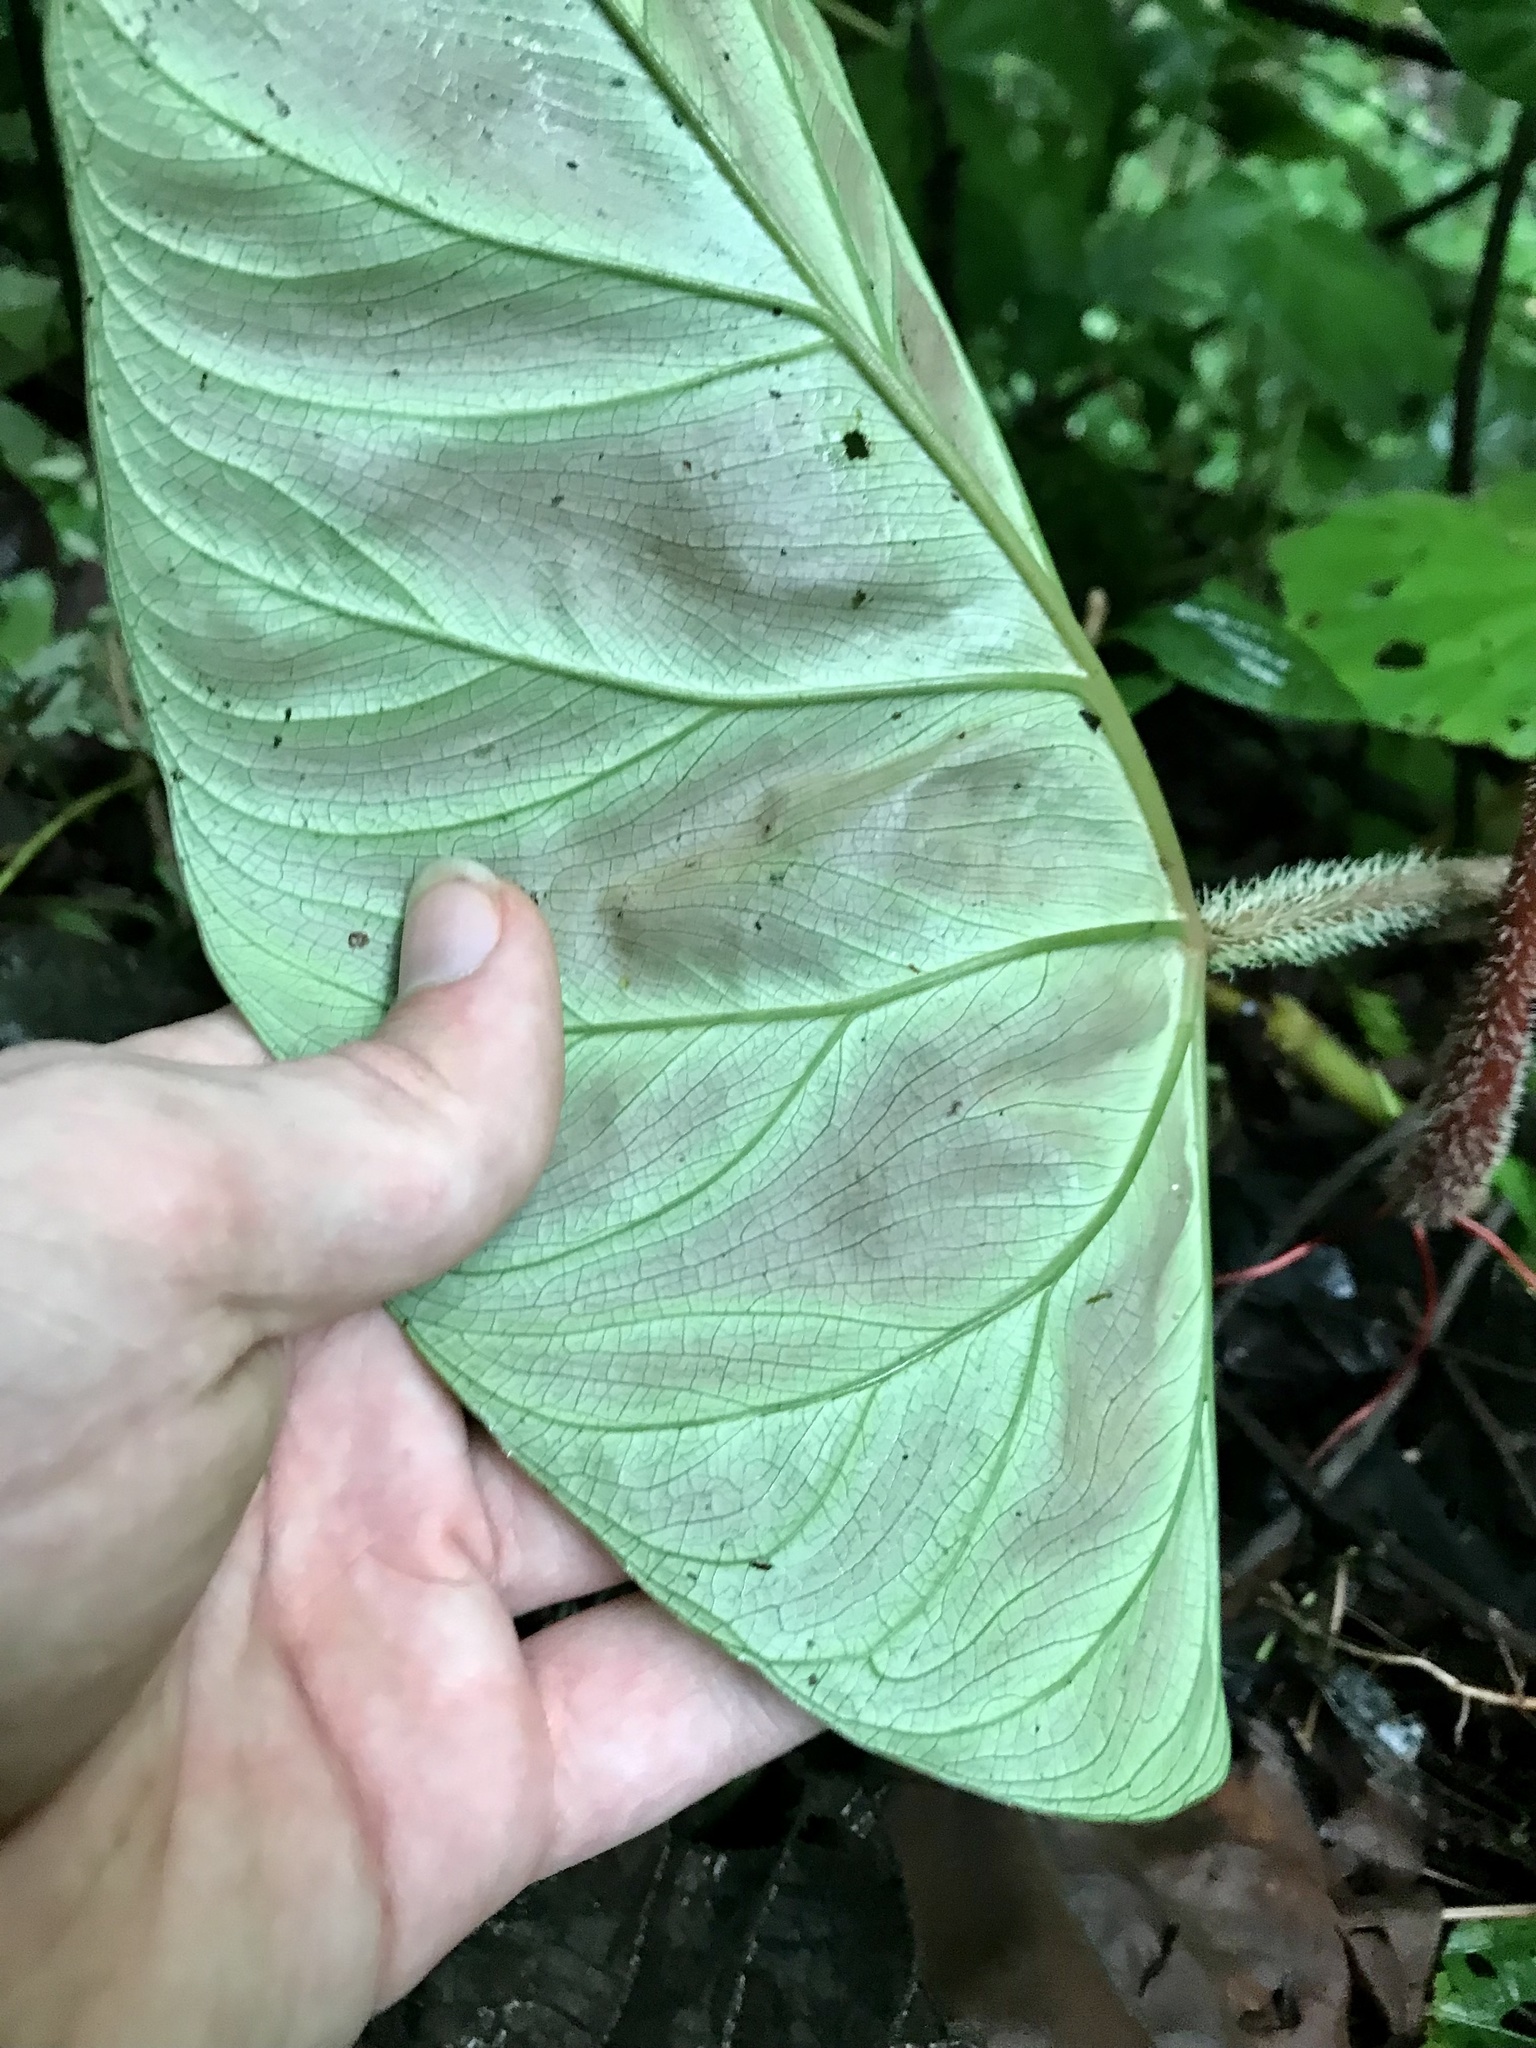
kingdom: Plantae
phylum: Tracheophyta
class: Liliopsida
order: Alismatales
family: Araceae
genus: Philodendron
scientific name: Philodendron verrucosum
